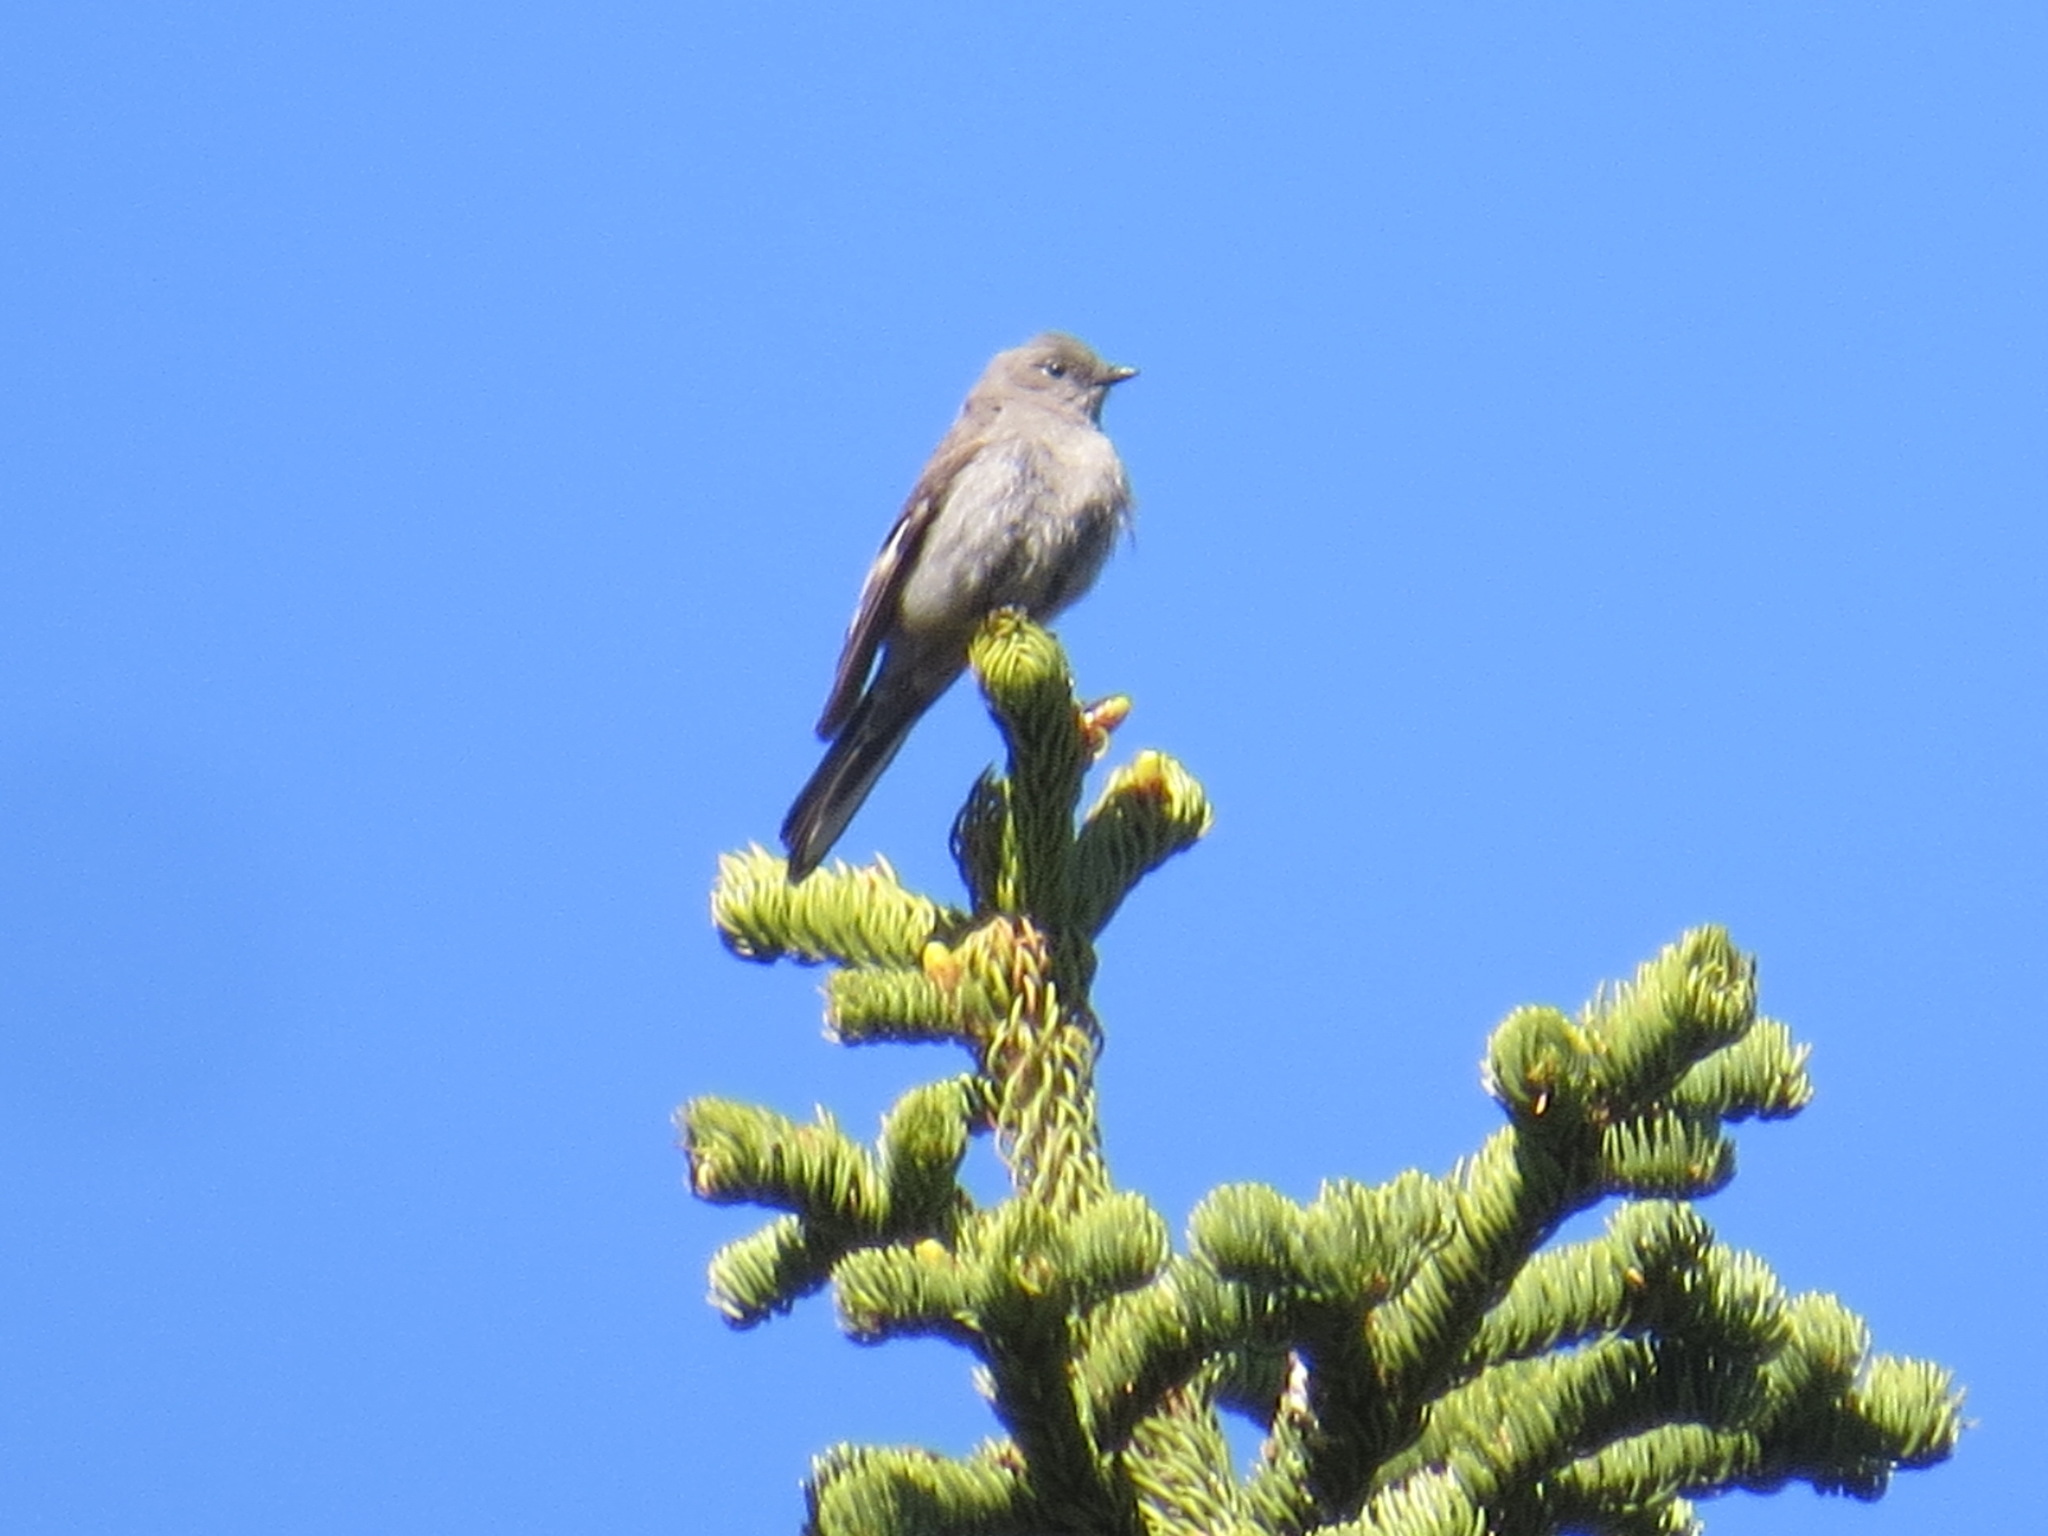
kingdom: Animalia
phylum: Chordata
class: Aves
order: Passeriformes
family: Turdidae
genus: Myadestes
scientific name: Myadestes townsendi
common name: Townsend's solitaire
